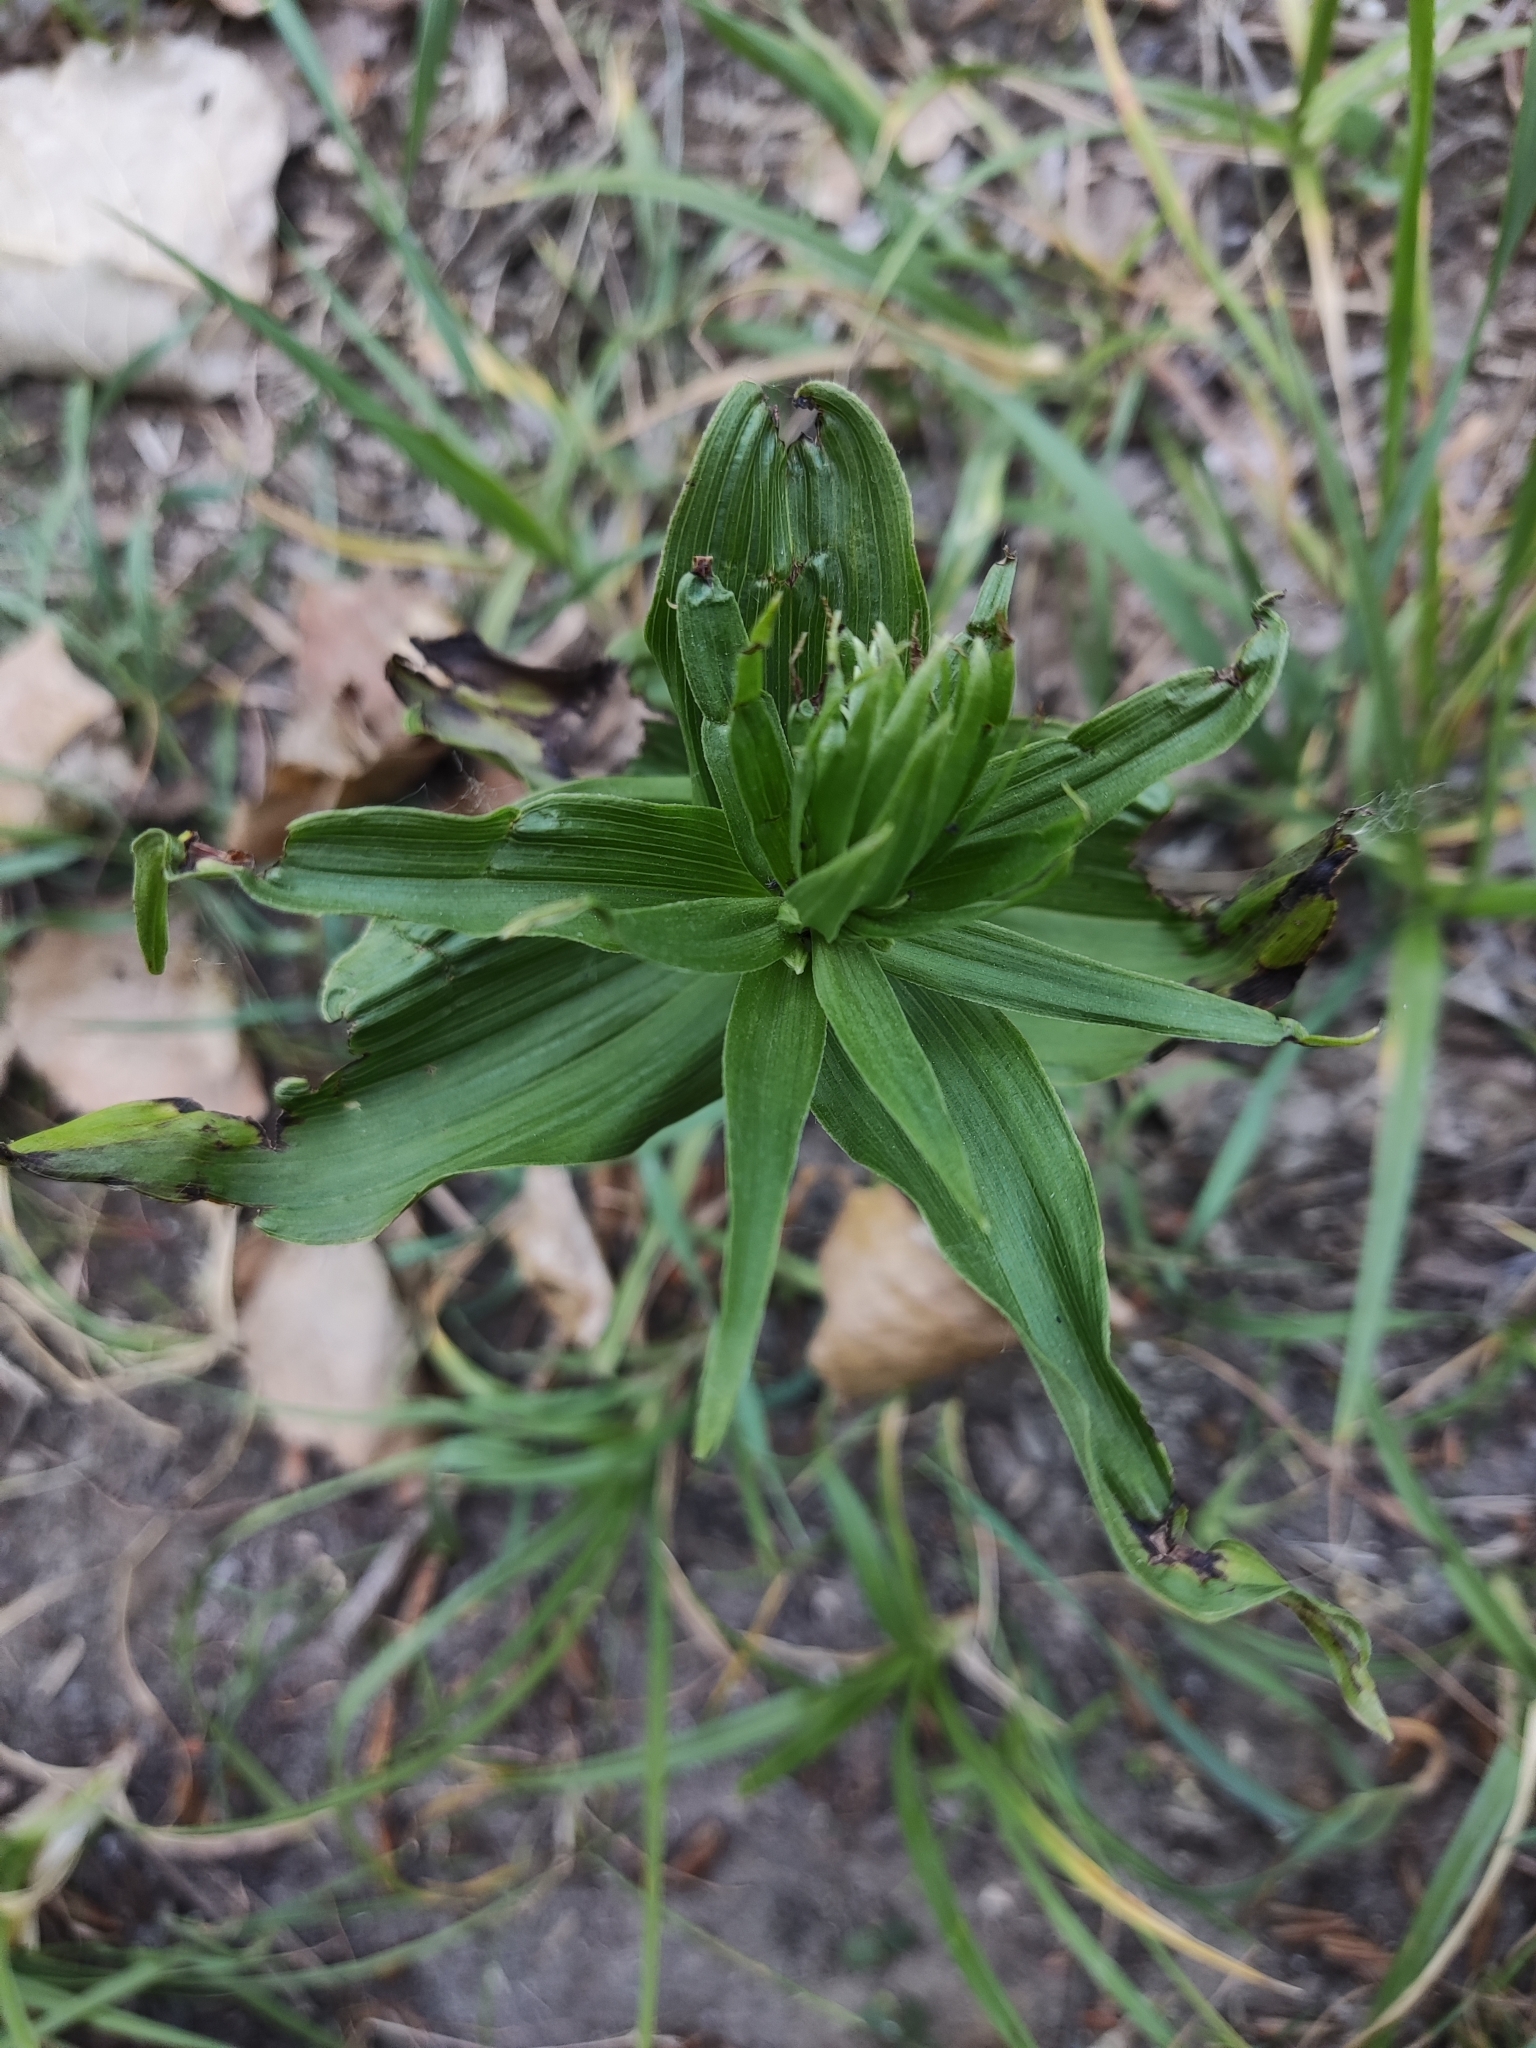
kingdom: Plantae
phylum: Tracheophyta
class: Liliopsida
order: Asparagales
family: Orchidaceae
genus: Epipactis
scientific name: Epipactis helleborine
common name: Broad-leaved helleborine
